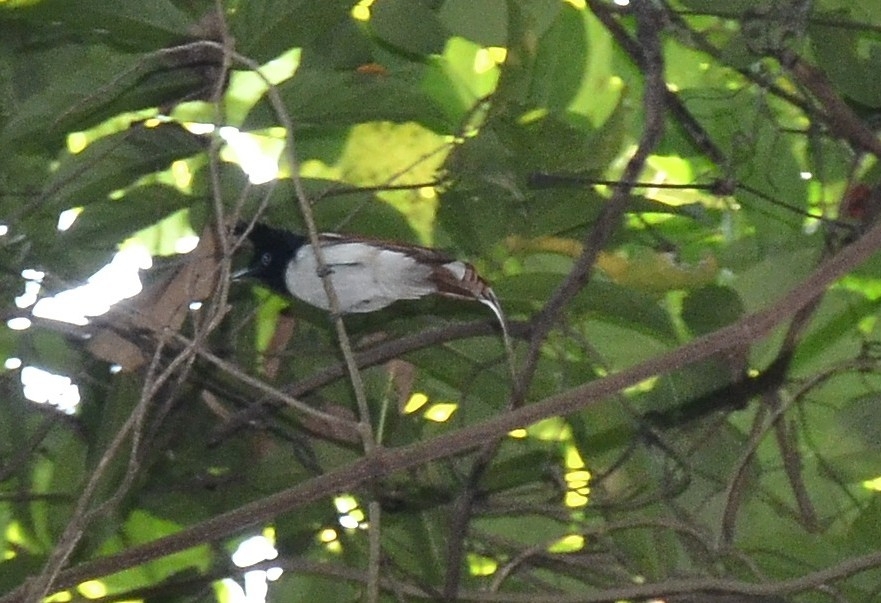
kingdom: Animalia
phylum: Chordata
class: Aves
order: Passeriformes
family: Monarchidae
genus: Terpsiphone
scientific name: Terpsiphone paradisi
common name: Indian paradise flycatcher
